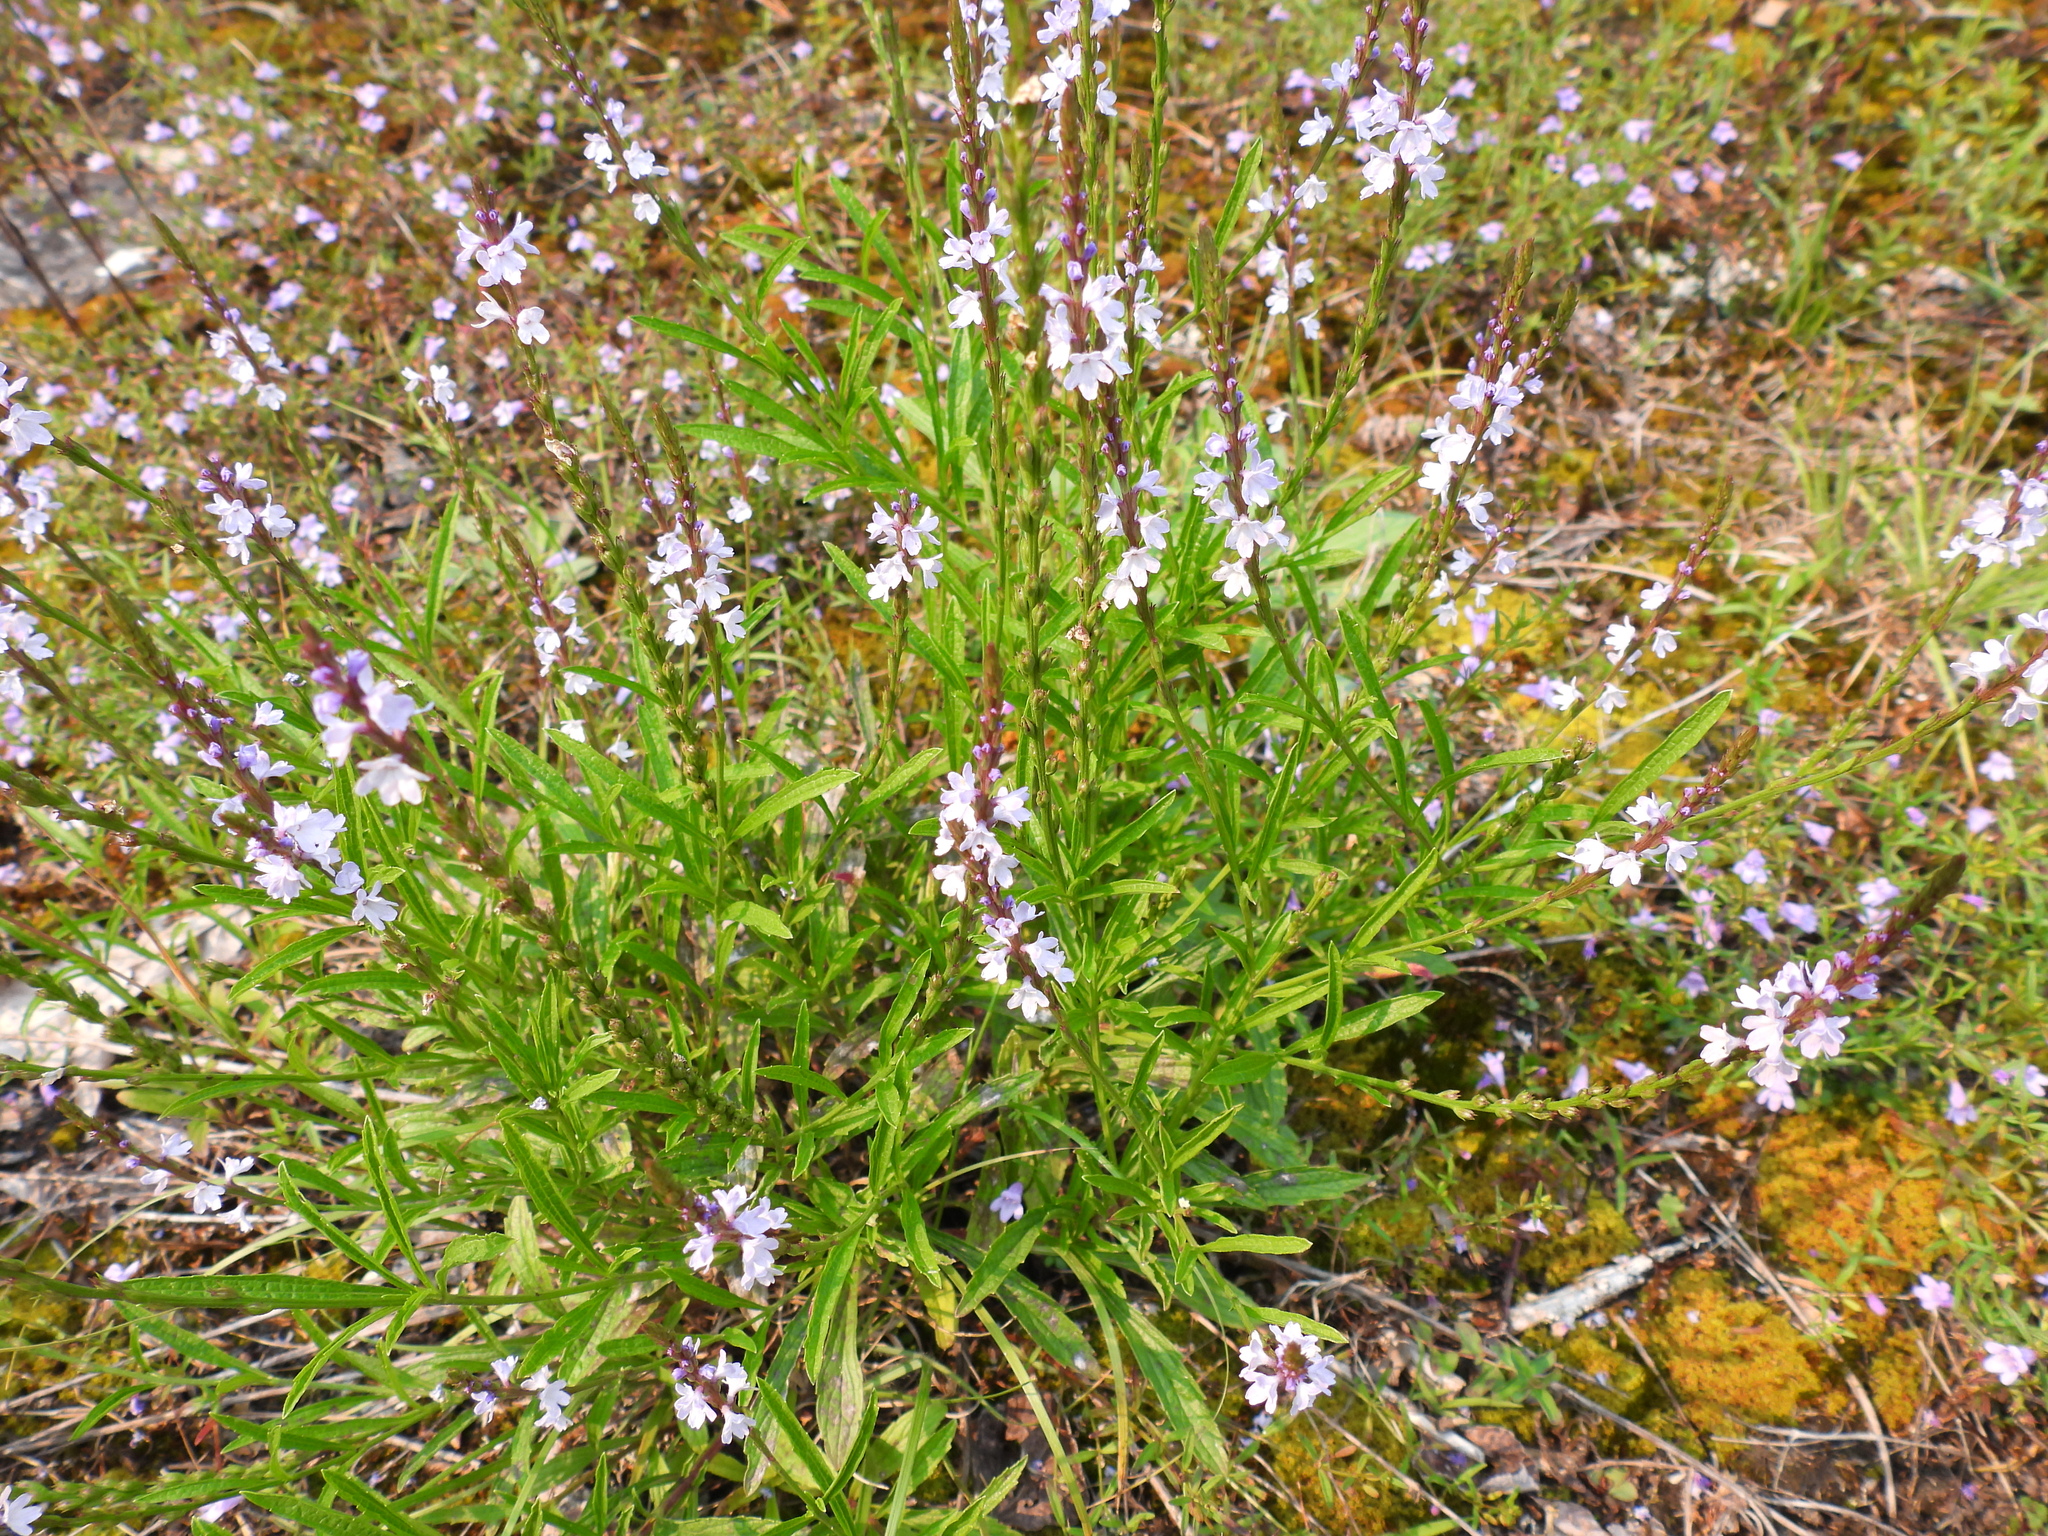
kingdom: Plantae
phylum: Tracheophyta
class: Magnoliopsida
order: Lamiales
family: Verbenaceae
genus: Verbena
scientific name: Verbena simplex
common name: Narrow-leaf vervain
